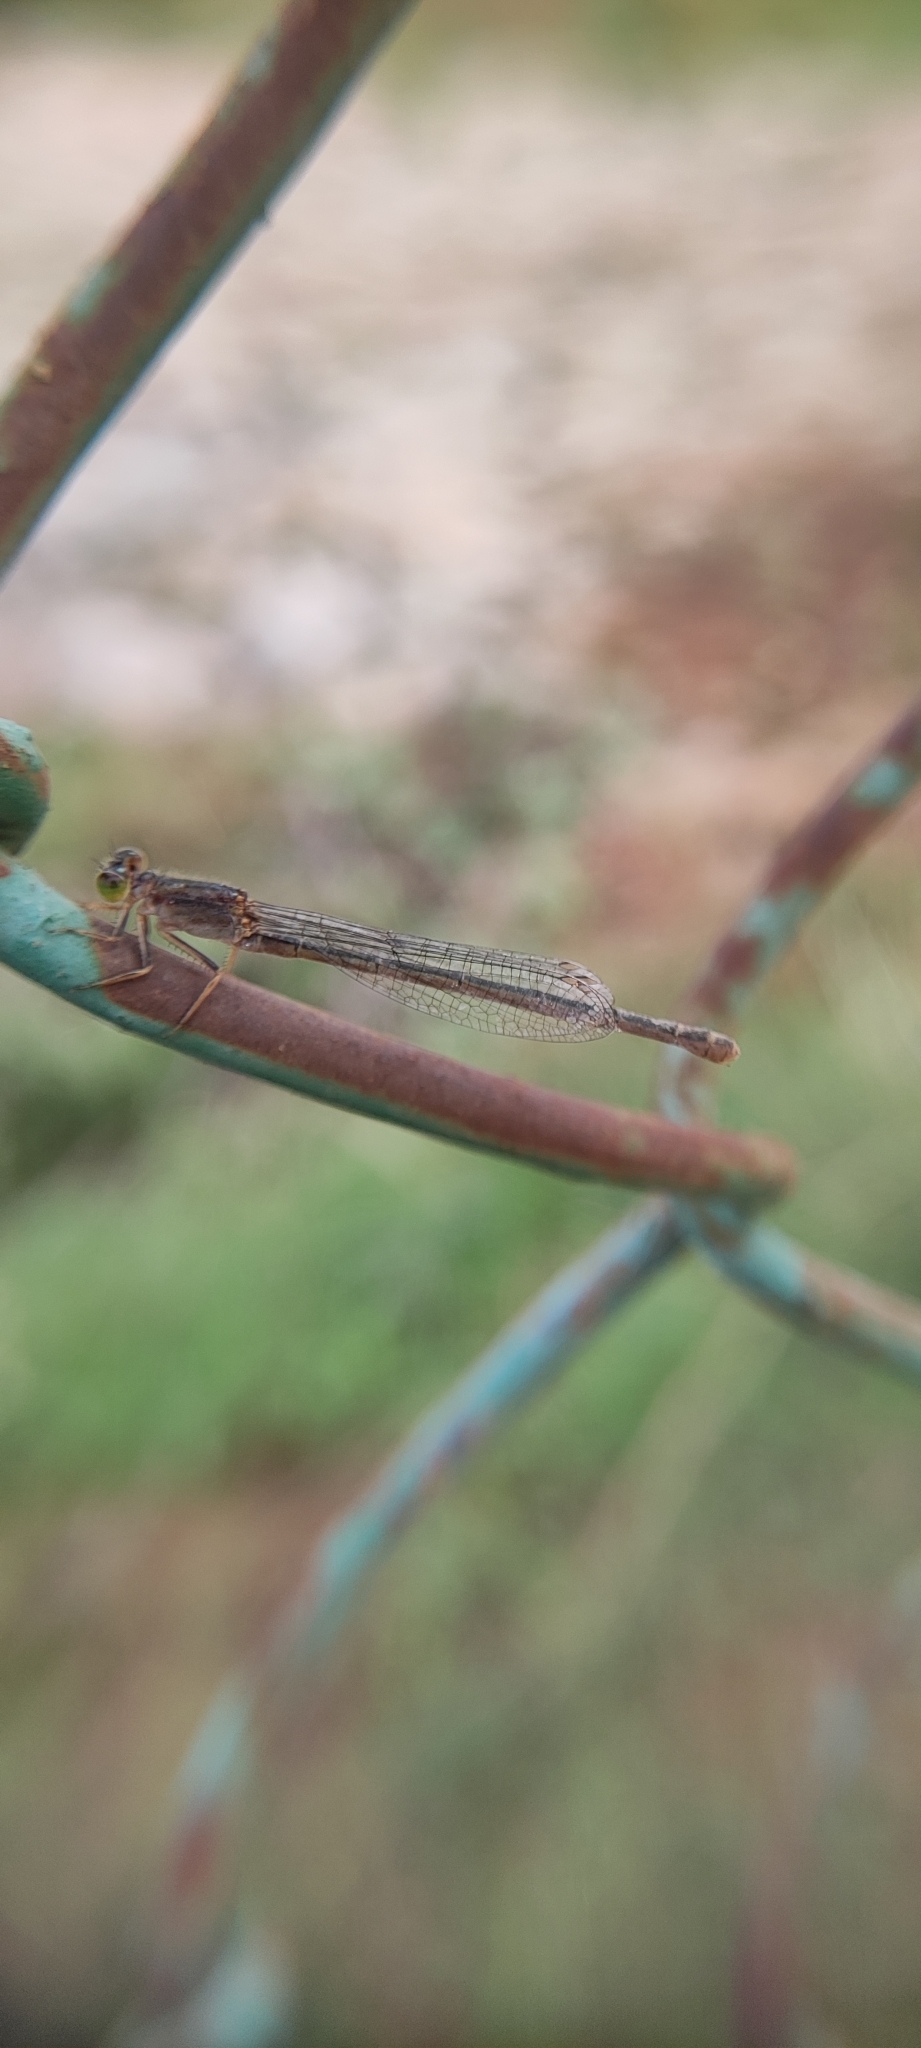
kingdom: Animalia
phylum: Arthropoda
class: Insecta
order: Odonata
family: Coenagrionidae
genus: Ischnura
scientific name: Ischnura senegalensis
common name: Tropical bluetail
